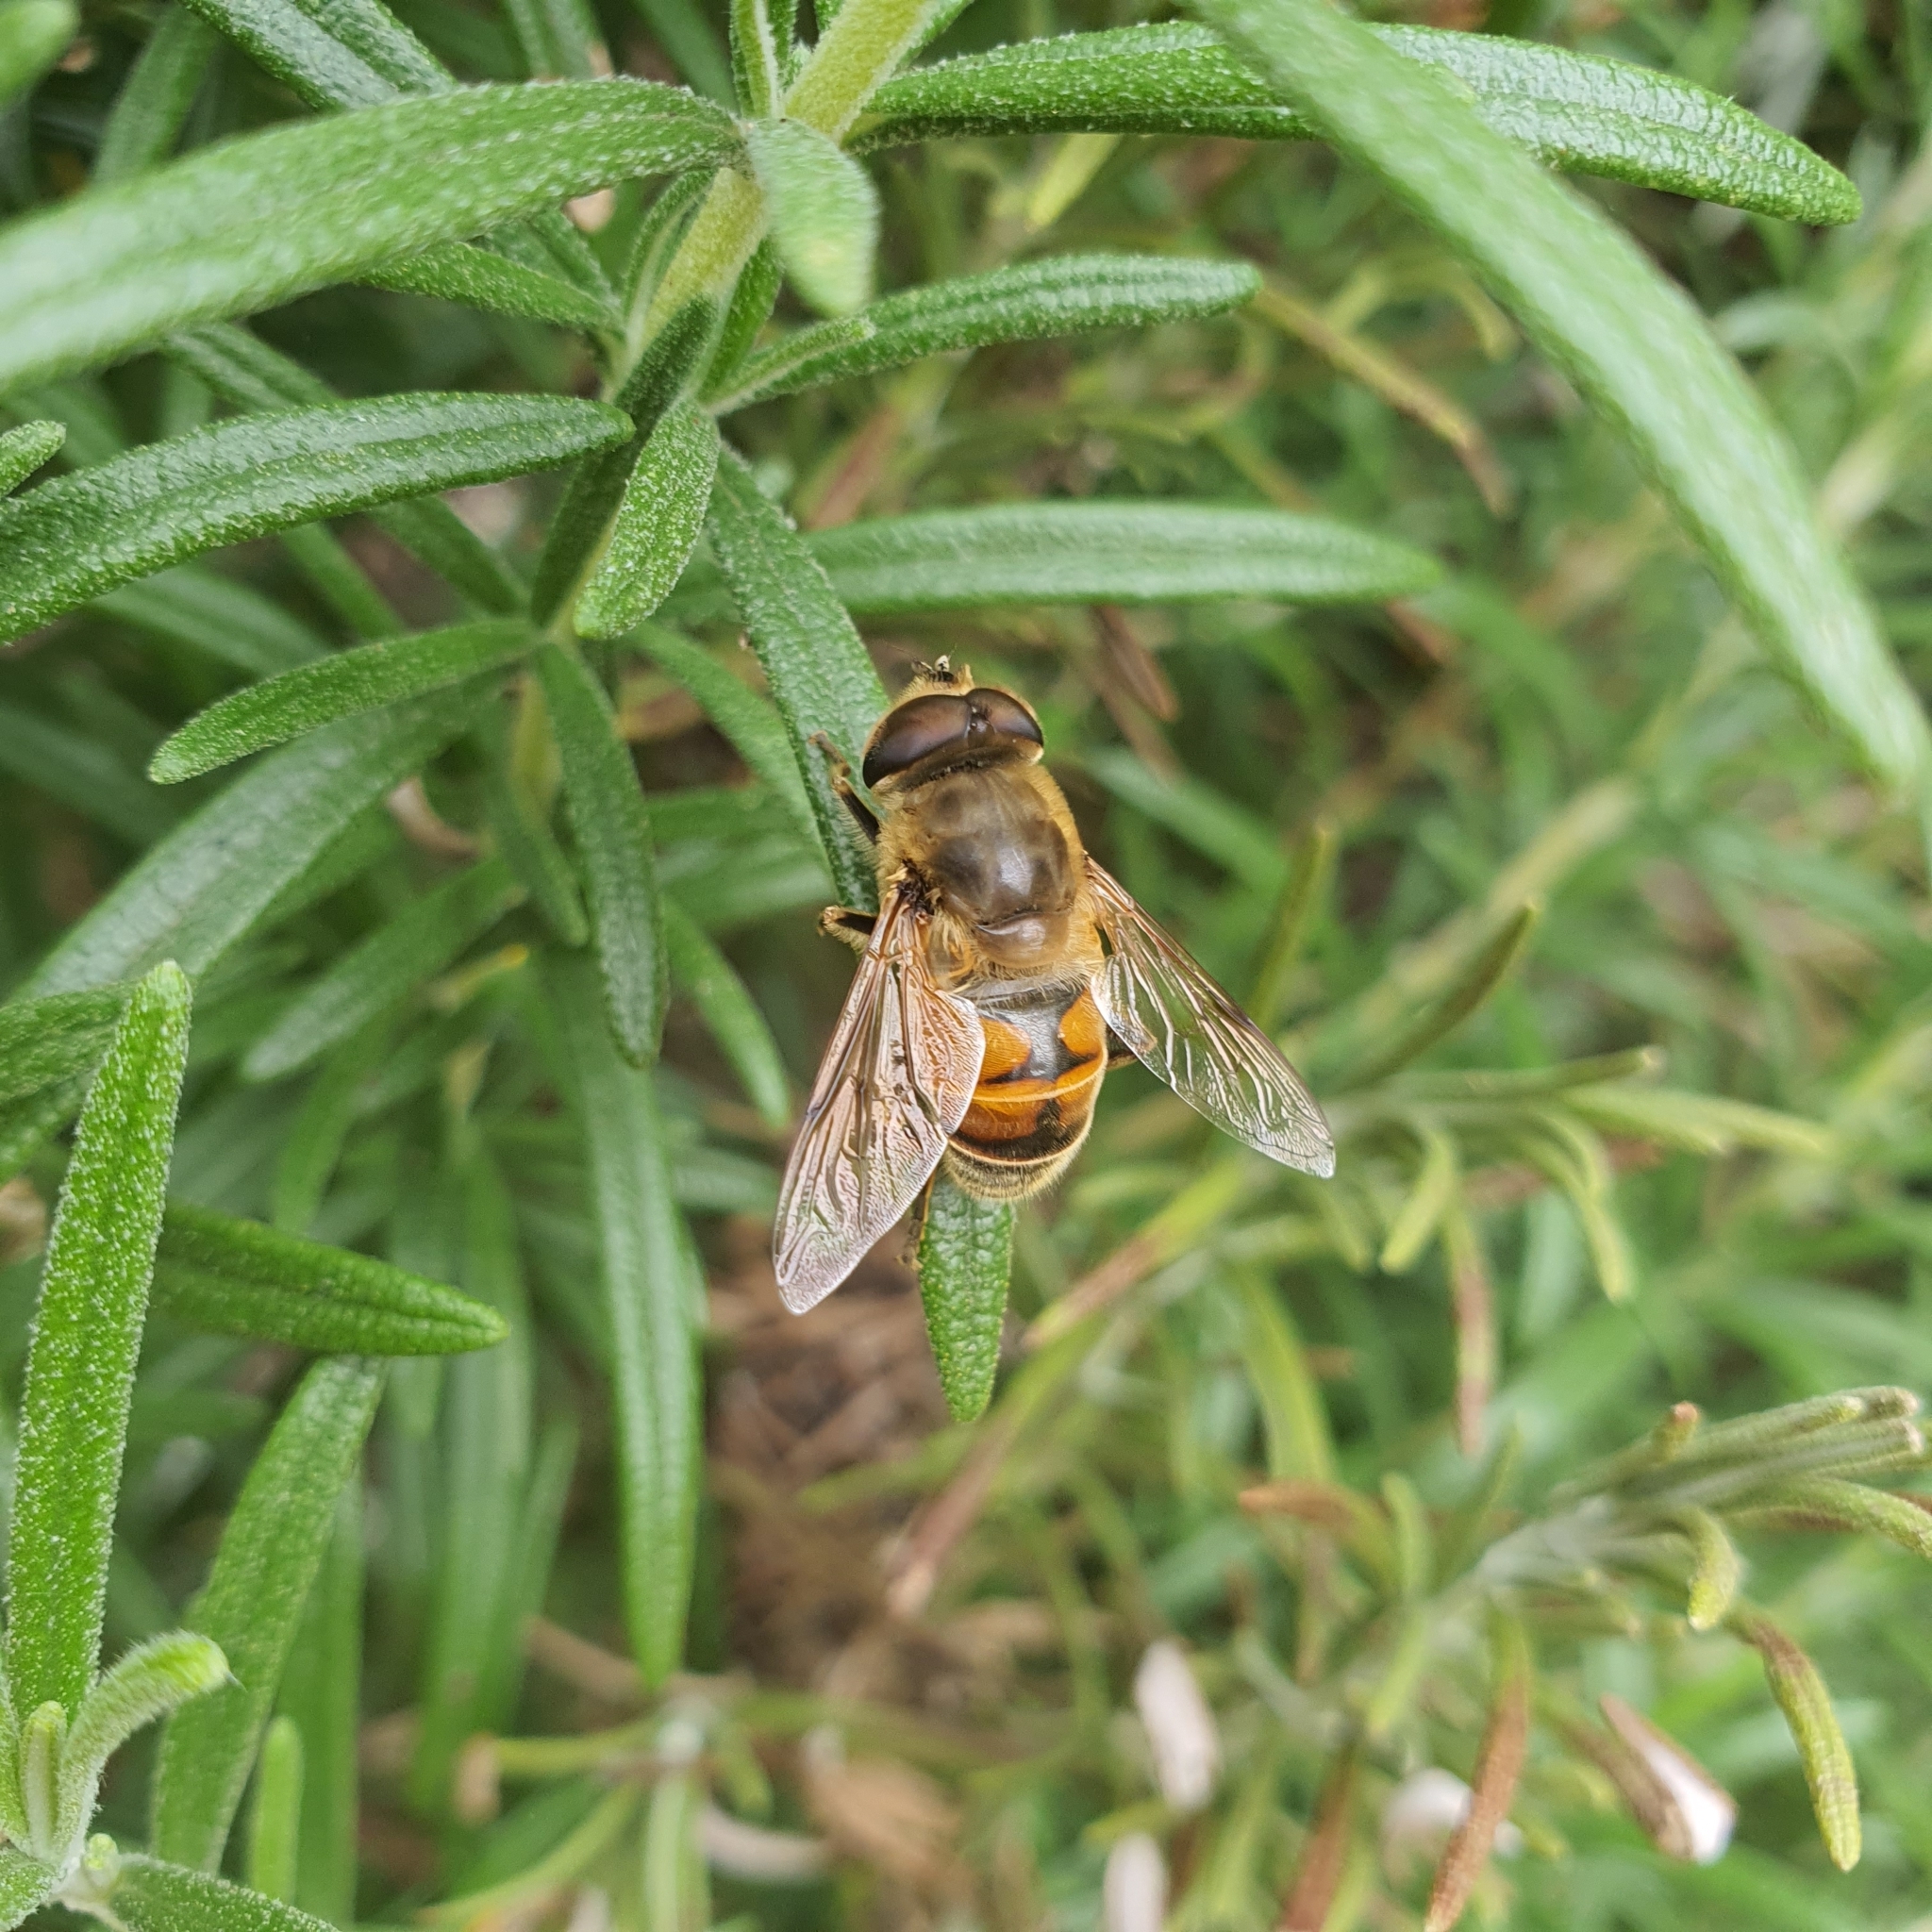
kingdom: Animalia
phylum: Arthropoda
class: Insecta
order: Diptera
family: Syrphidae
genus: Eristalis
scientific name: Eristalis tenax
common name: Drone fly
